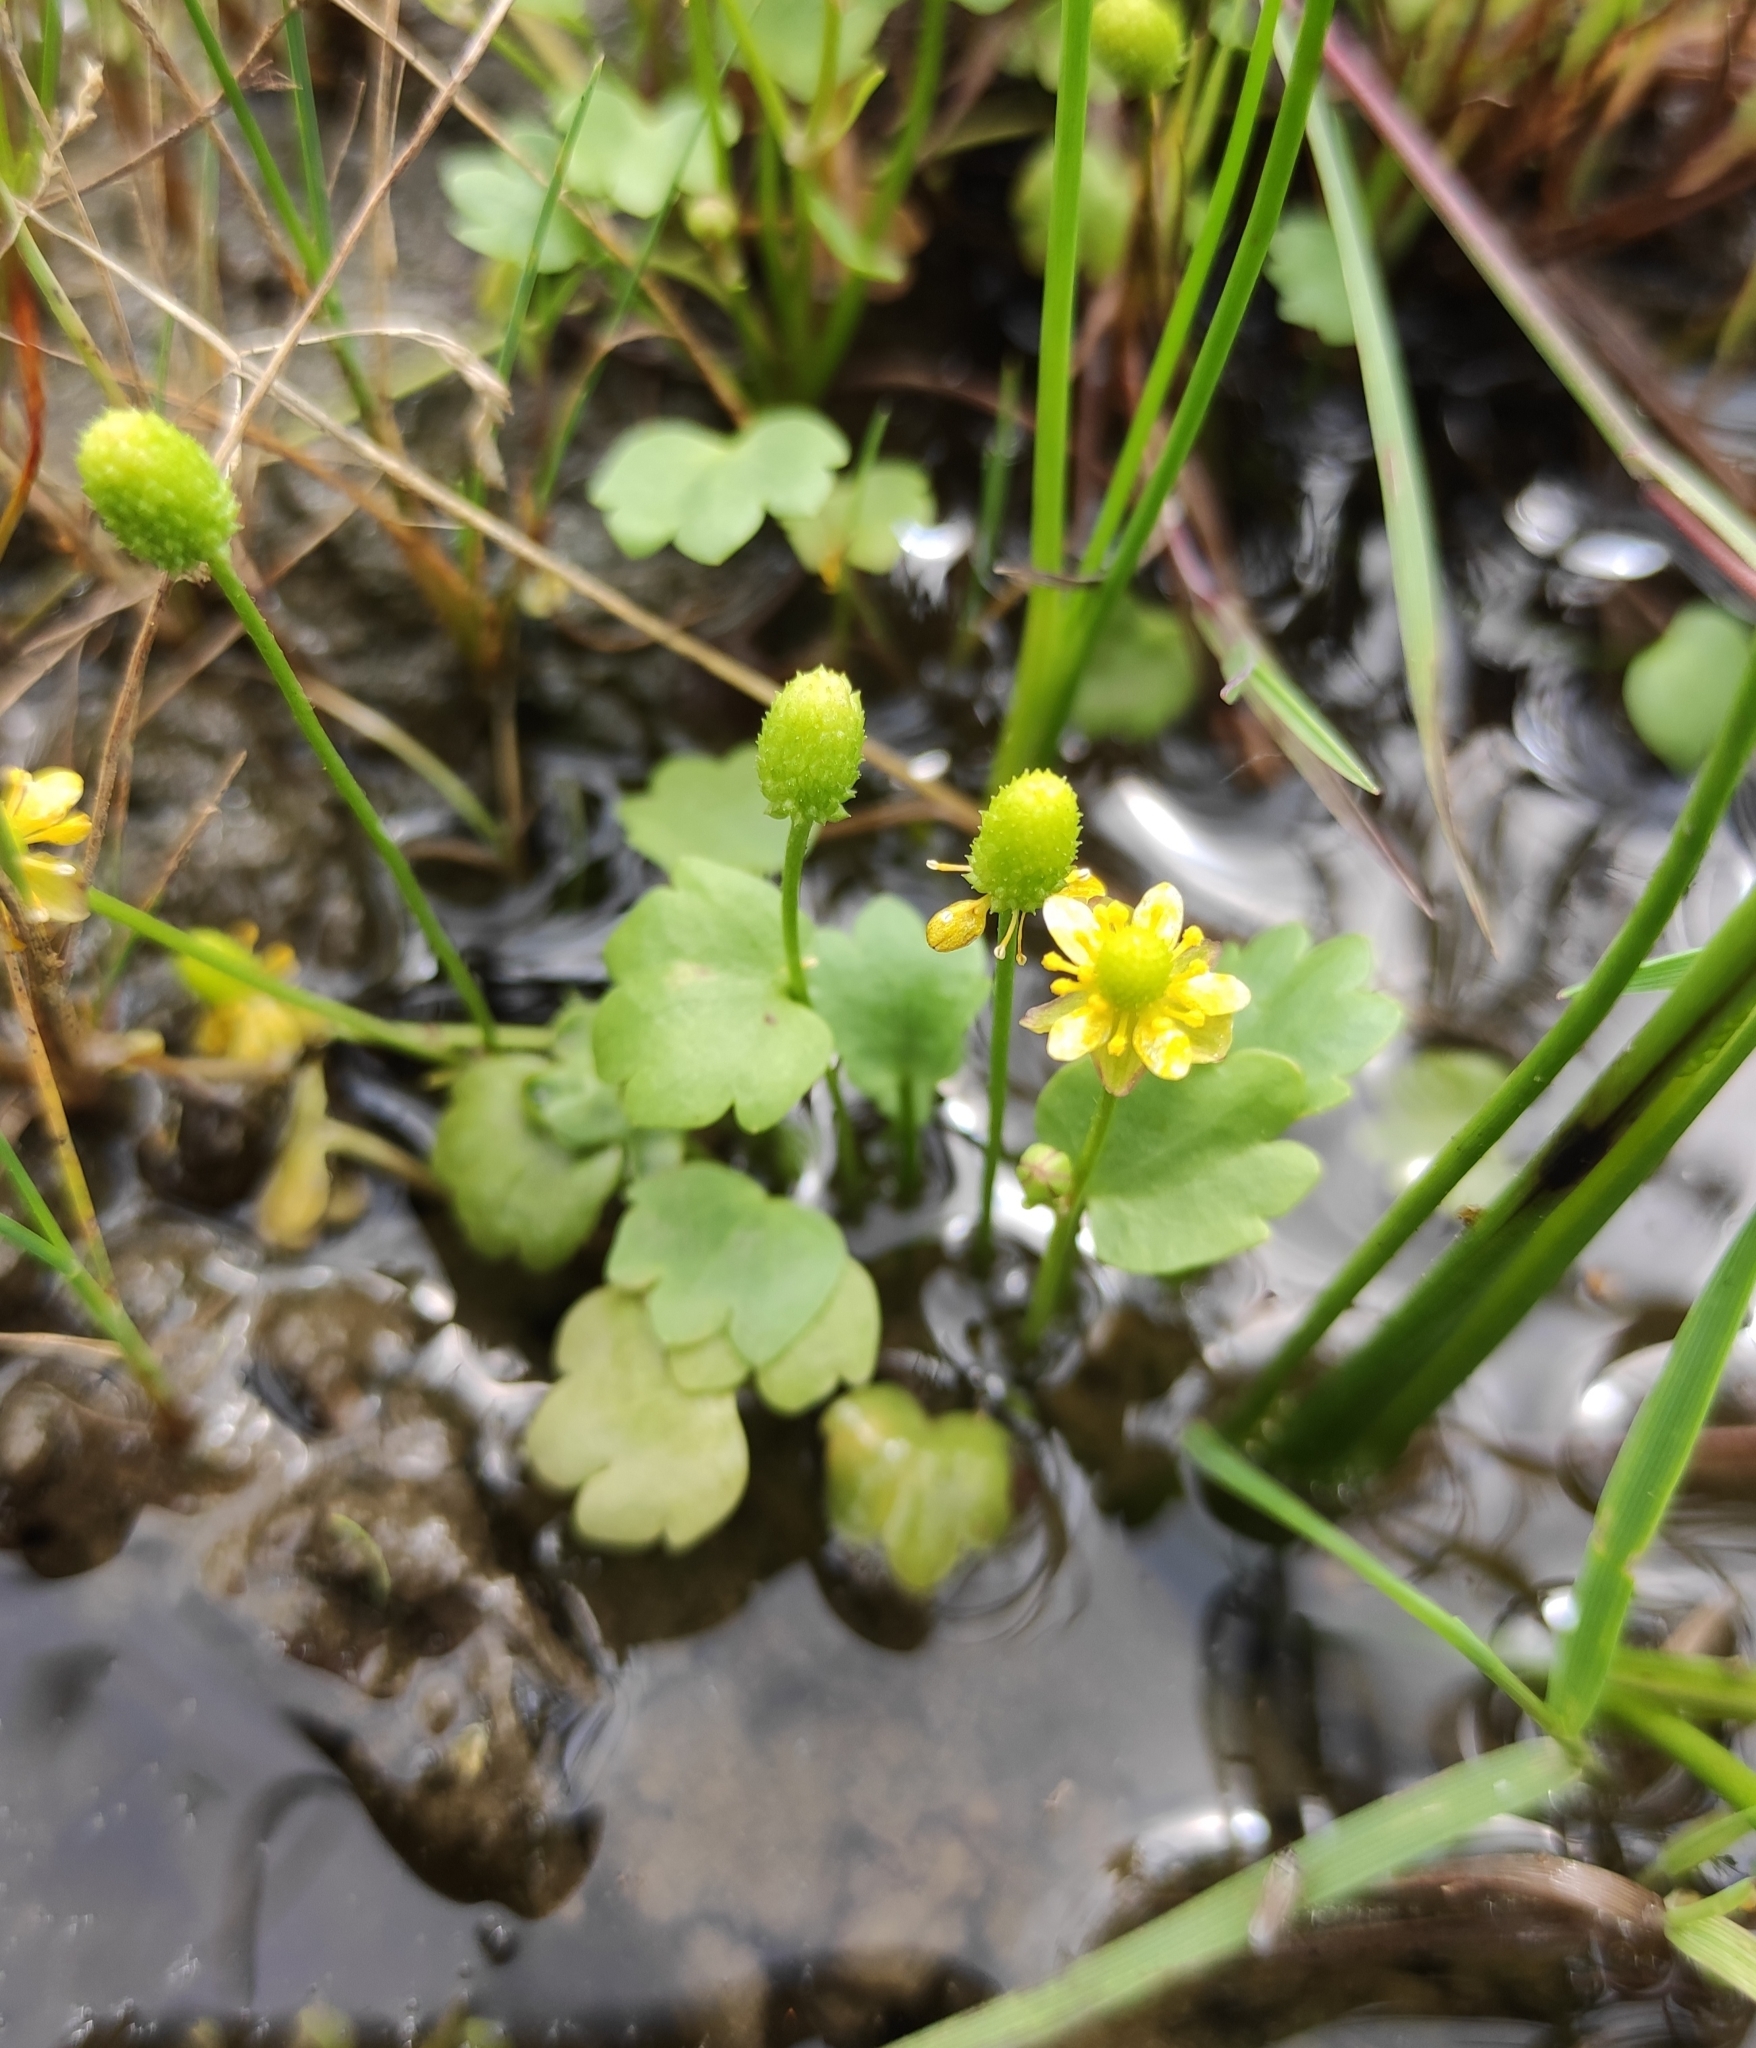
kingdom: Plantae
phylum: Tracheophyta
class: Magnoliopsida
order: Ranunculales
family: Ranunculaceae
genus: Halerpestes
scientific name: Halerpestes sarmentosus
